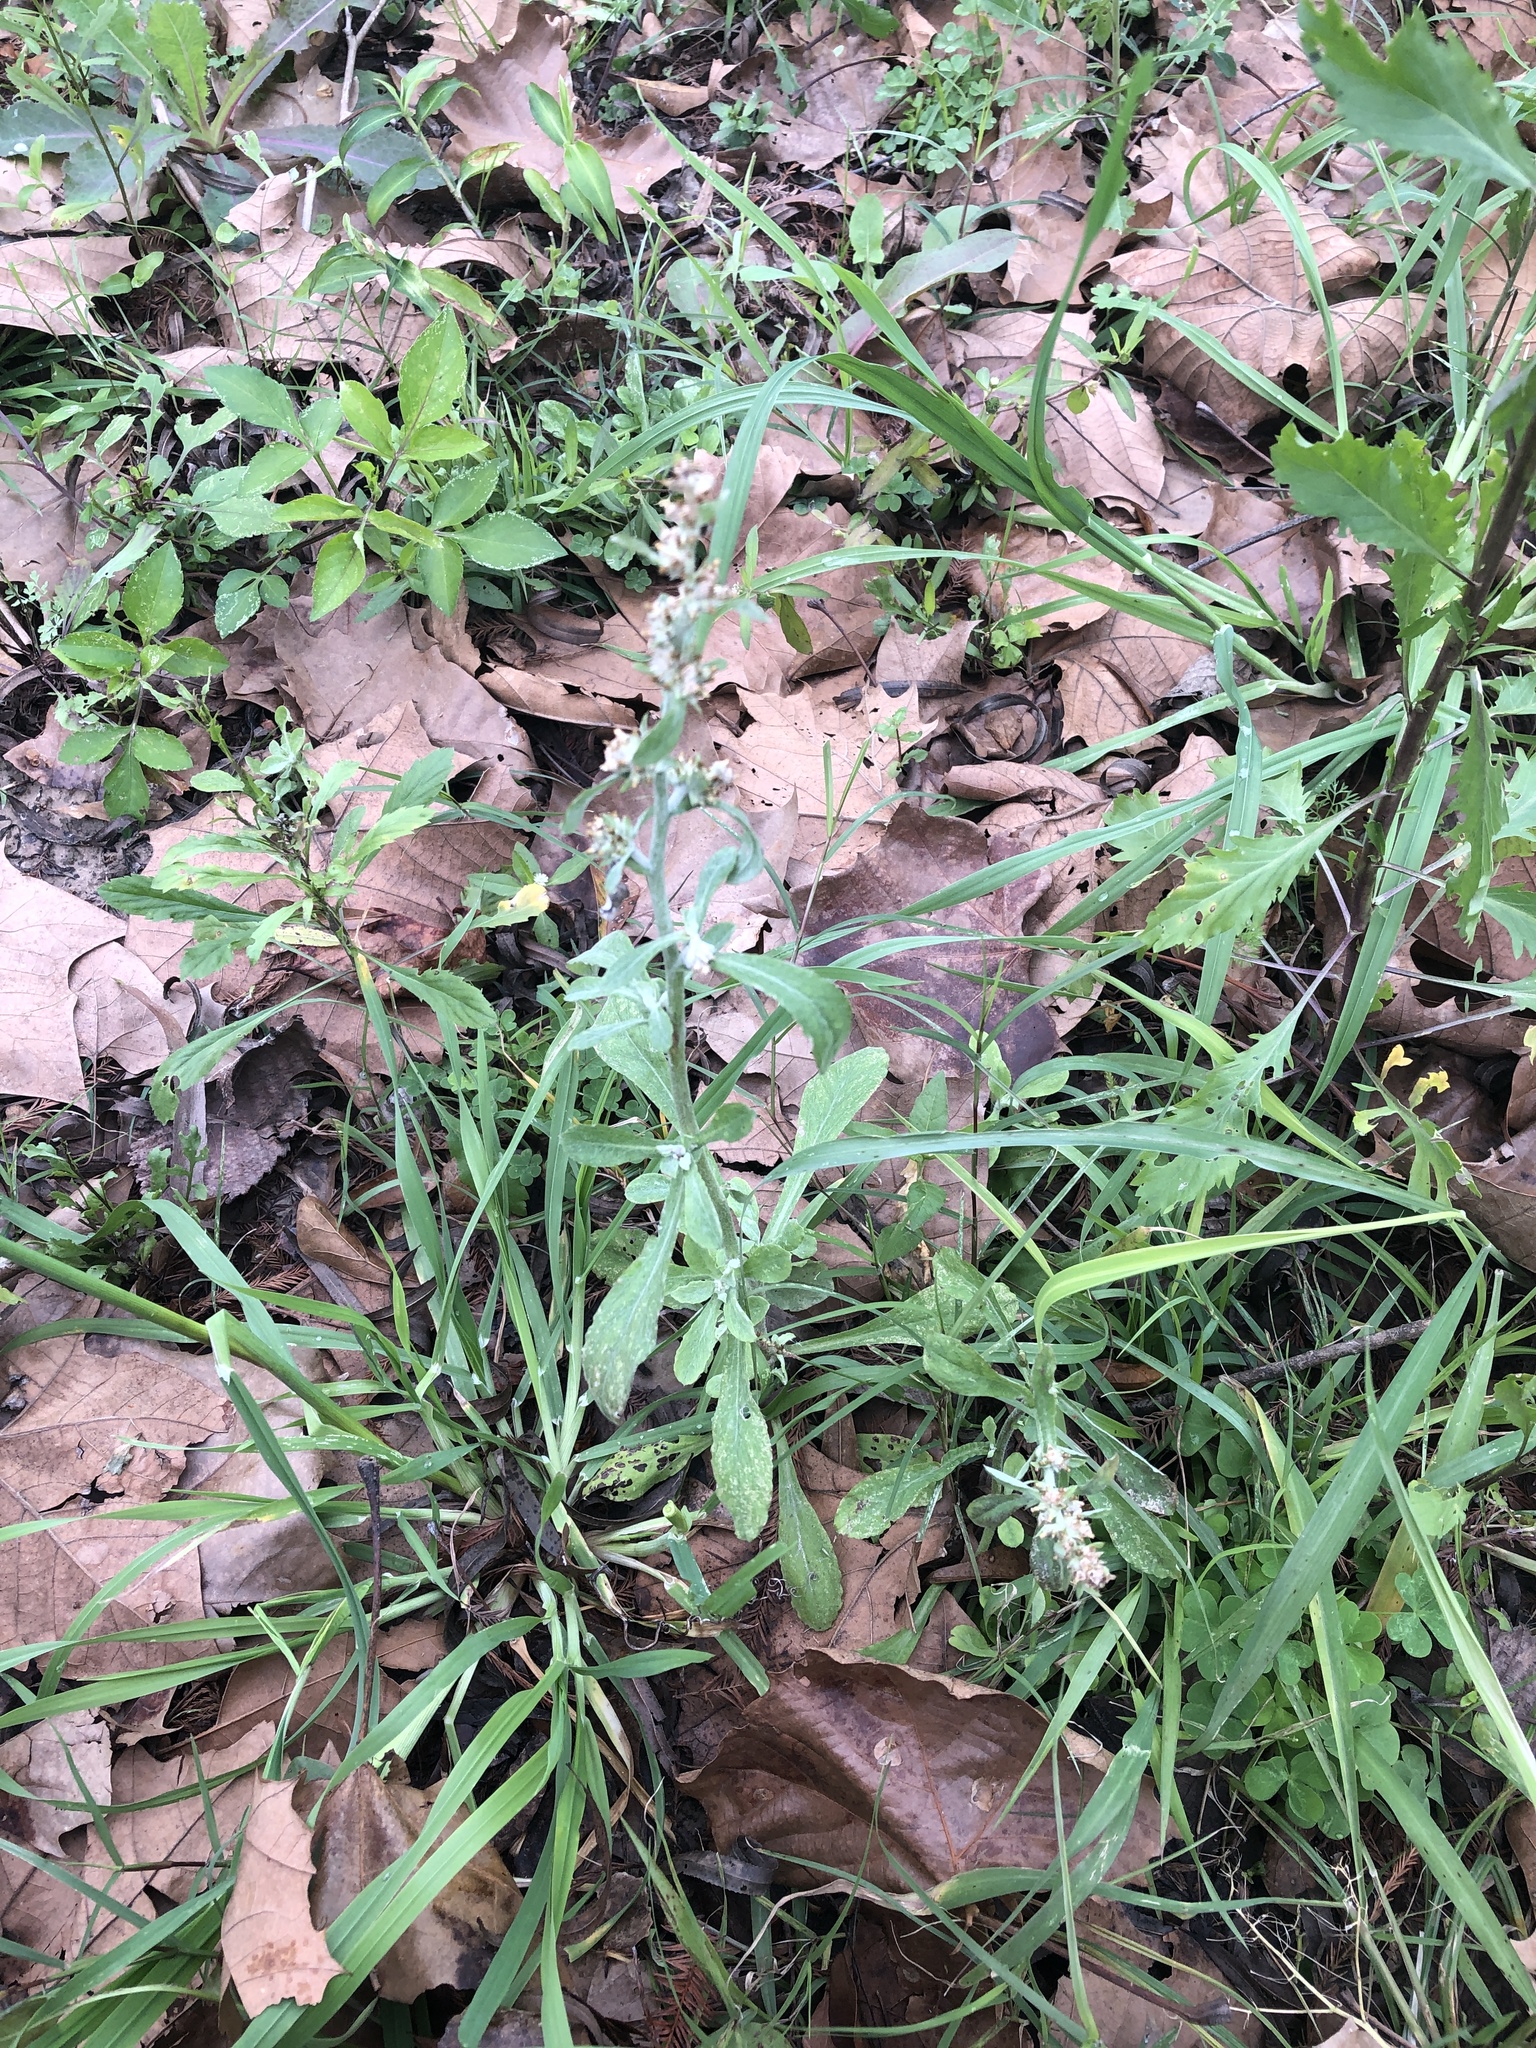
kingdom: Plantae
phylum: Tracheophyta
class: Magnoliopsida
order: Asterales
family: Asteraceae
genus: Gamochaeta
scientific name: Gamochaeta pensylvanica
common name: Pennsylvania everlasting
